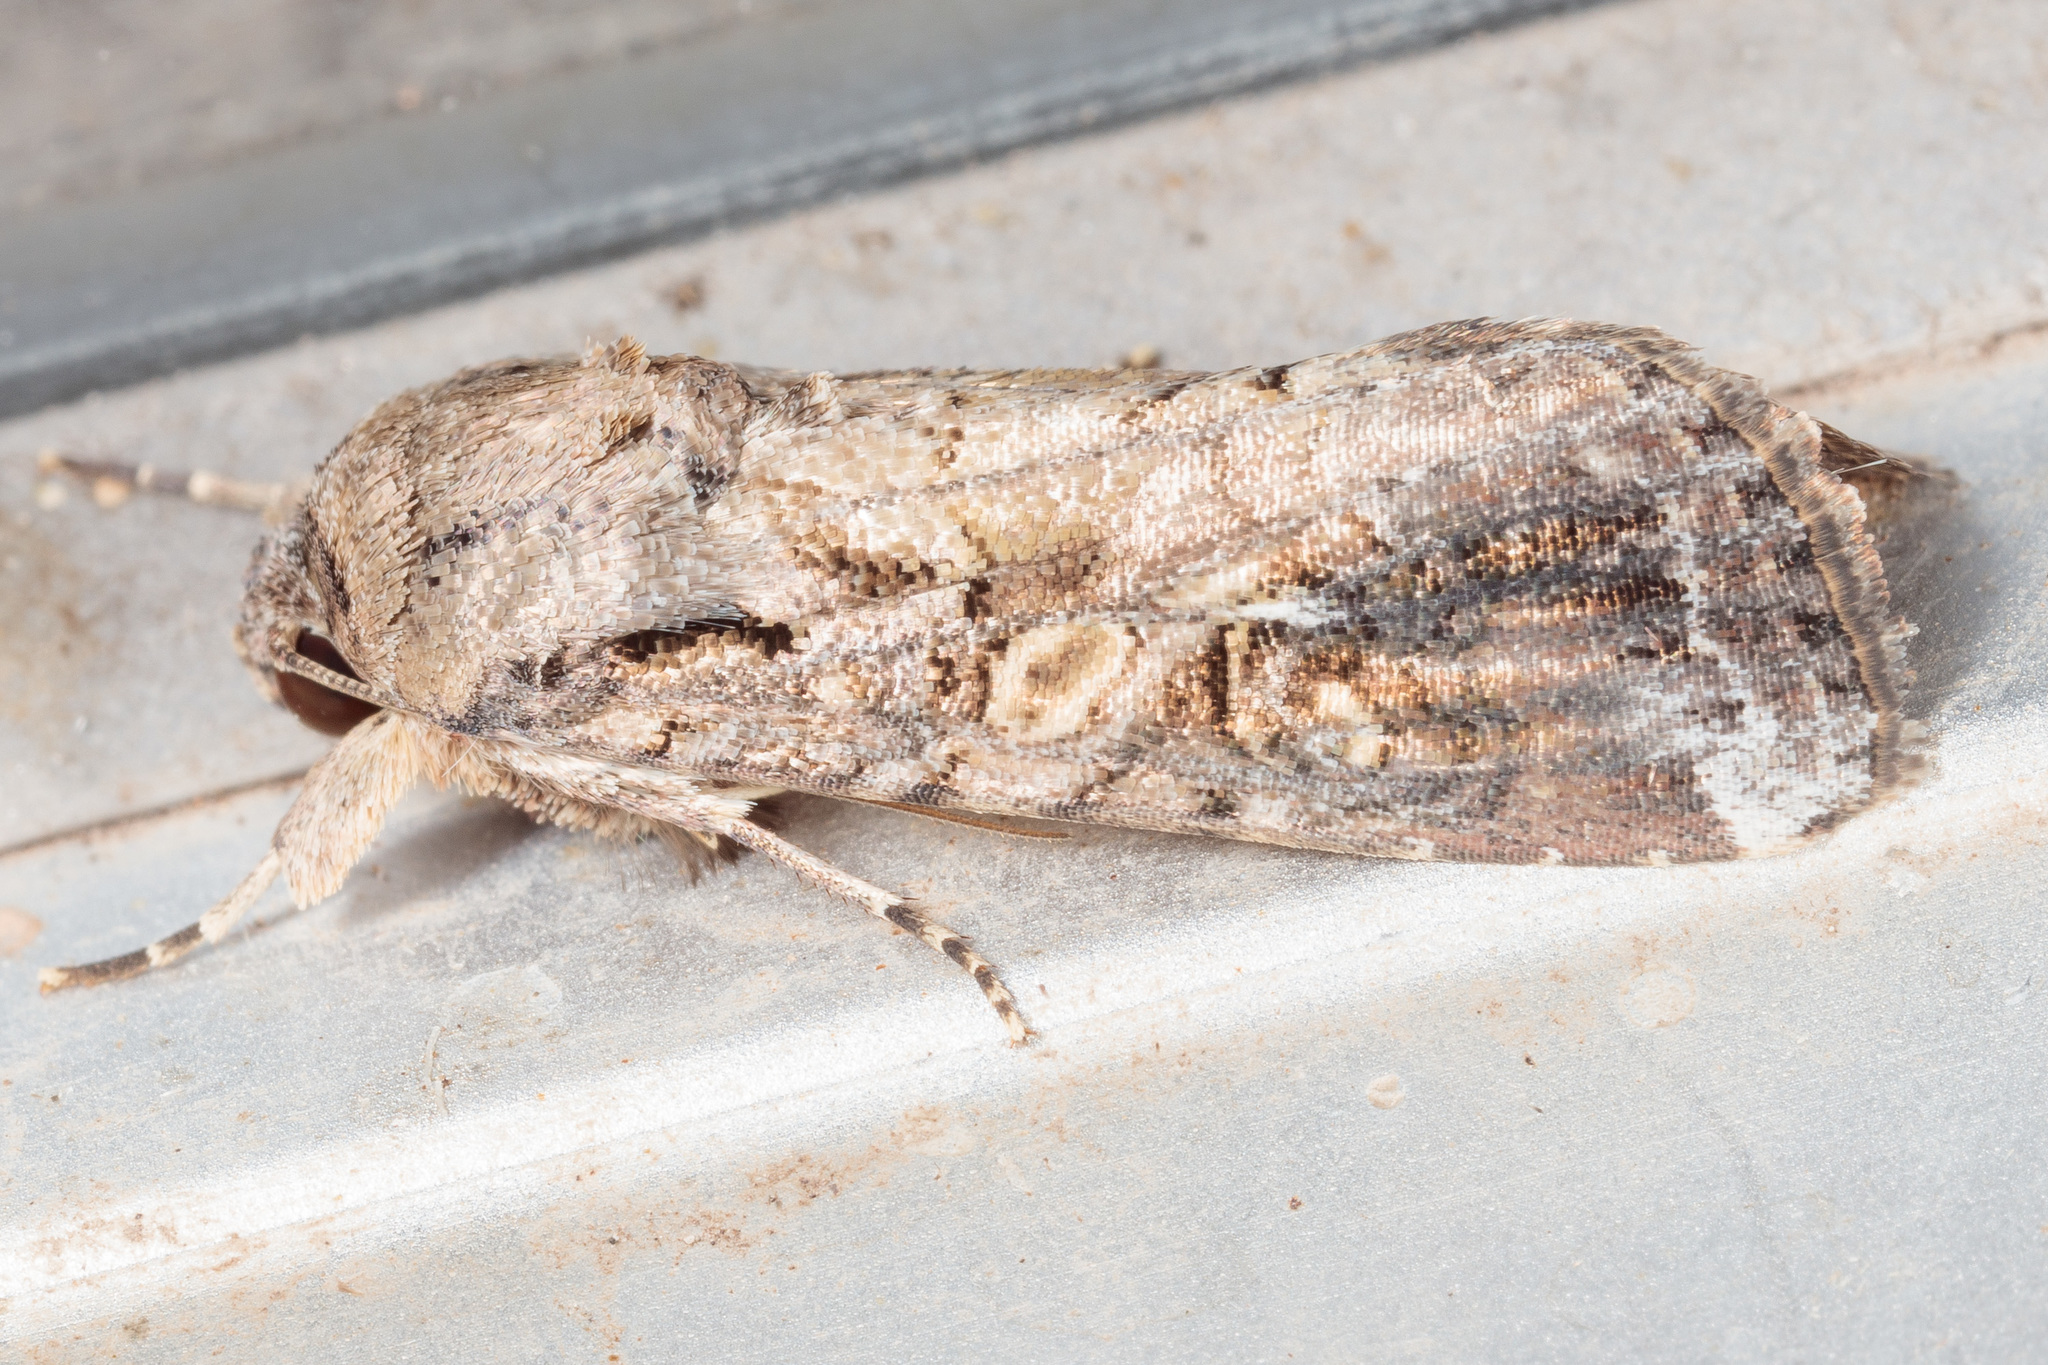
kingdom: Animalia
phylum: Arthropoda
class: Insecta
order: Lepidoptera
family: Noctuidae
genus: Spodoptera
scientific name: Spodoptera frugiperda
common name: Fall armyworm
